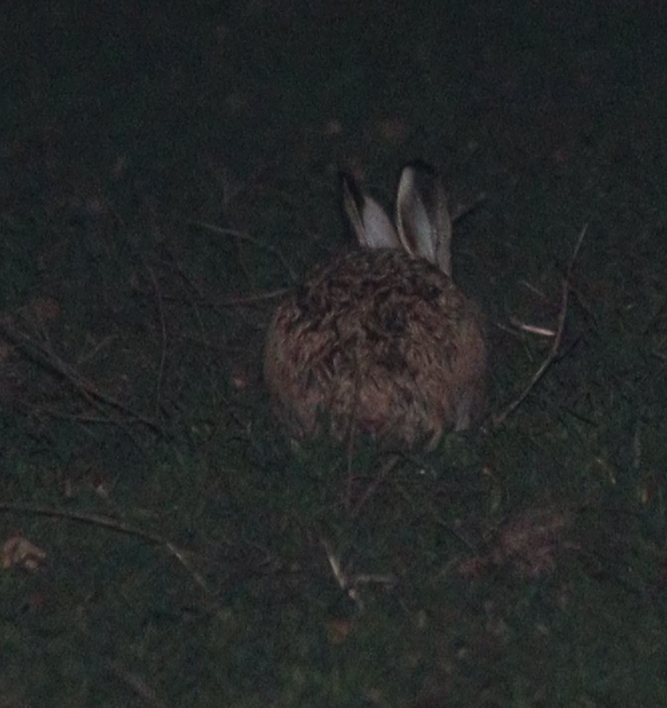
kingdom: Animalia
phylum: Chordata
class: Mammalia
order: Lagomorpha
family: Leporidae
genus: Lepus
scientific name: Lepus europaeus
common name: European hare
